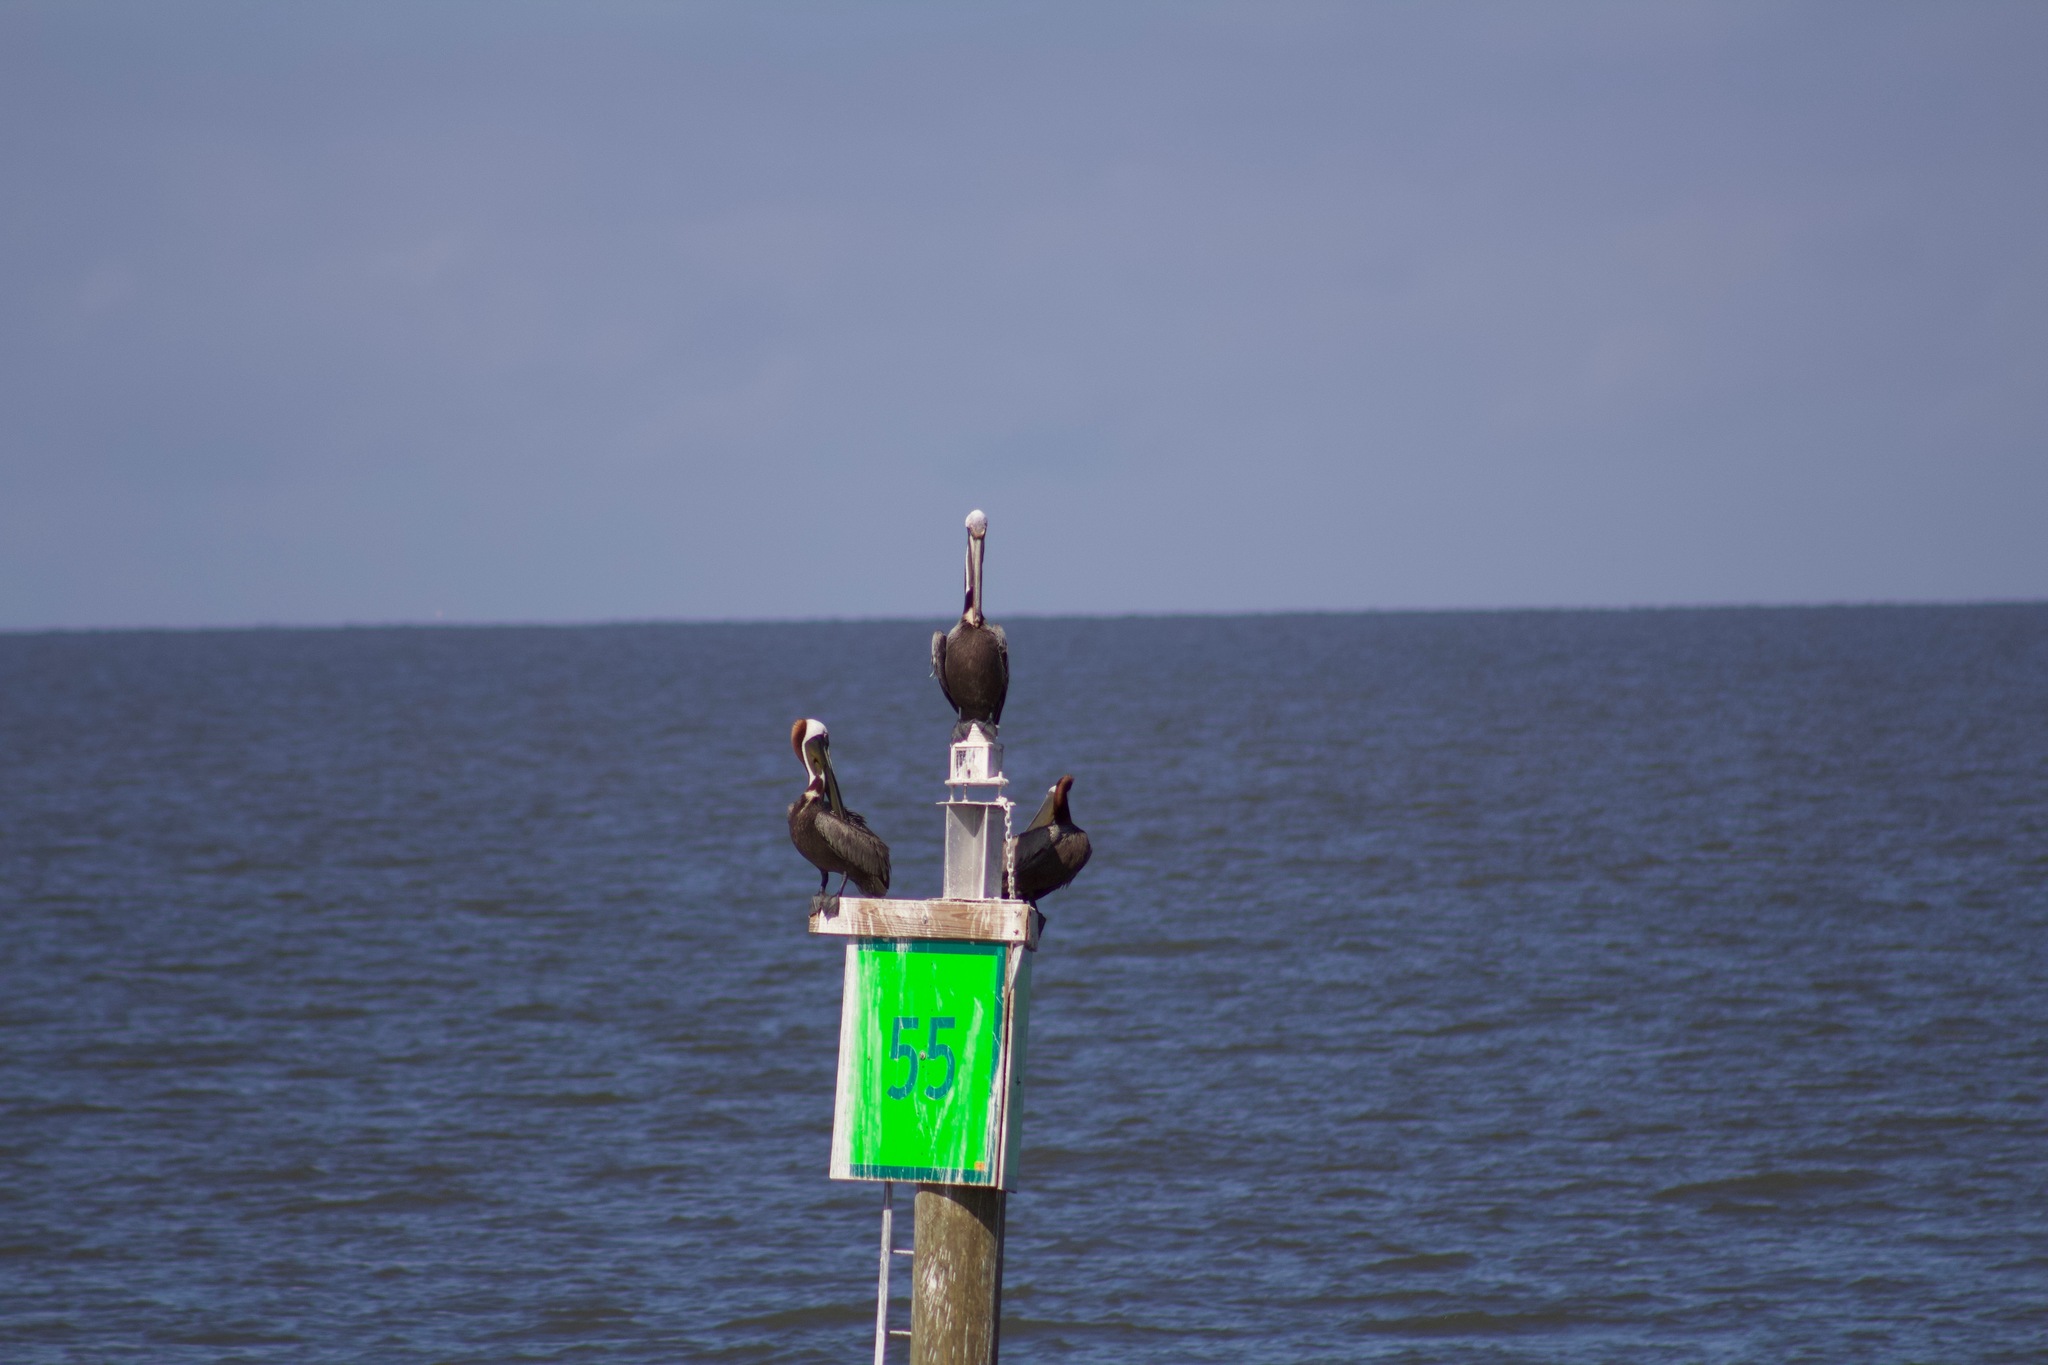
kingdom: Animalia
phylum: Chordata
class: Aves
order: Pelecaniformes
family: Pelecanidae
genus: Pelecanus
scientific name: Pelecanus occidentalis
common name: Brown pelican
